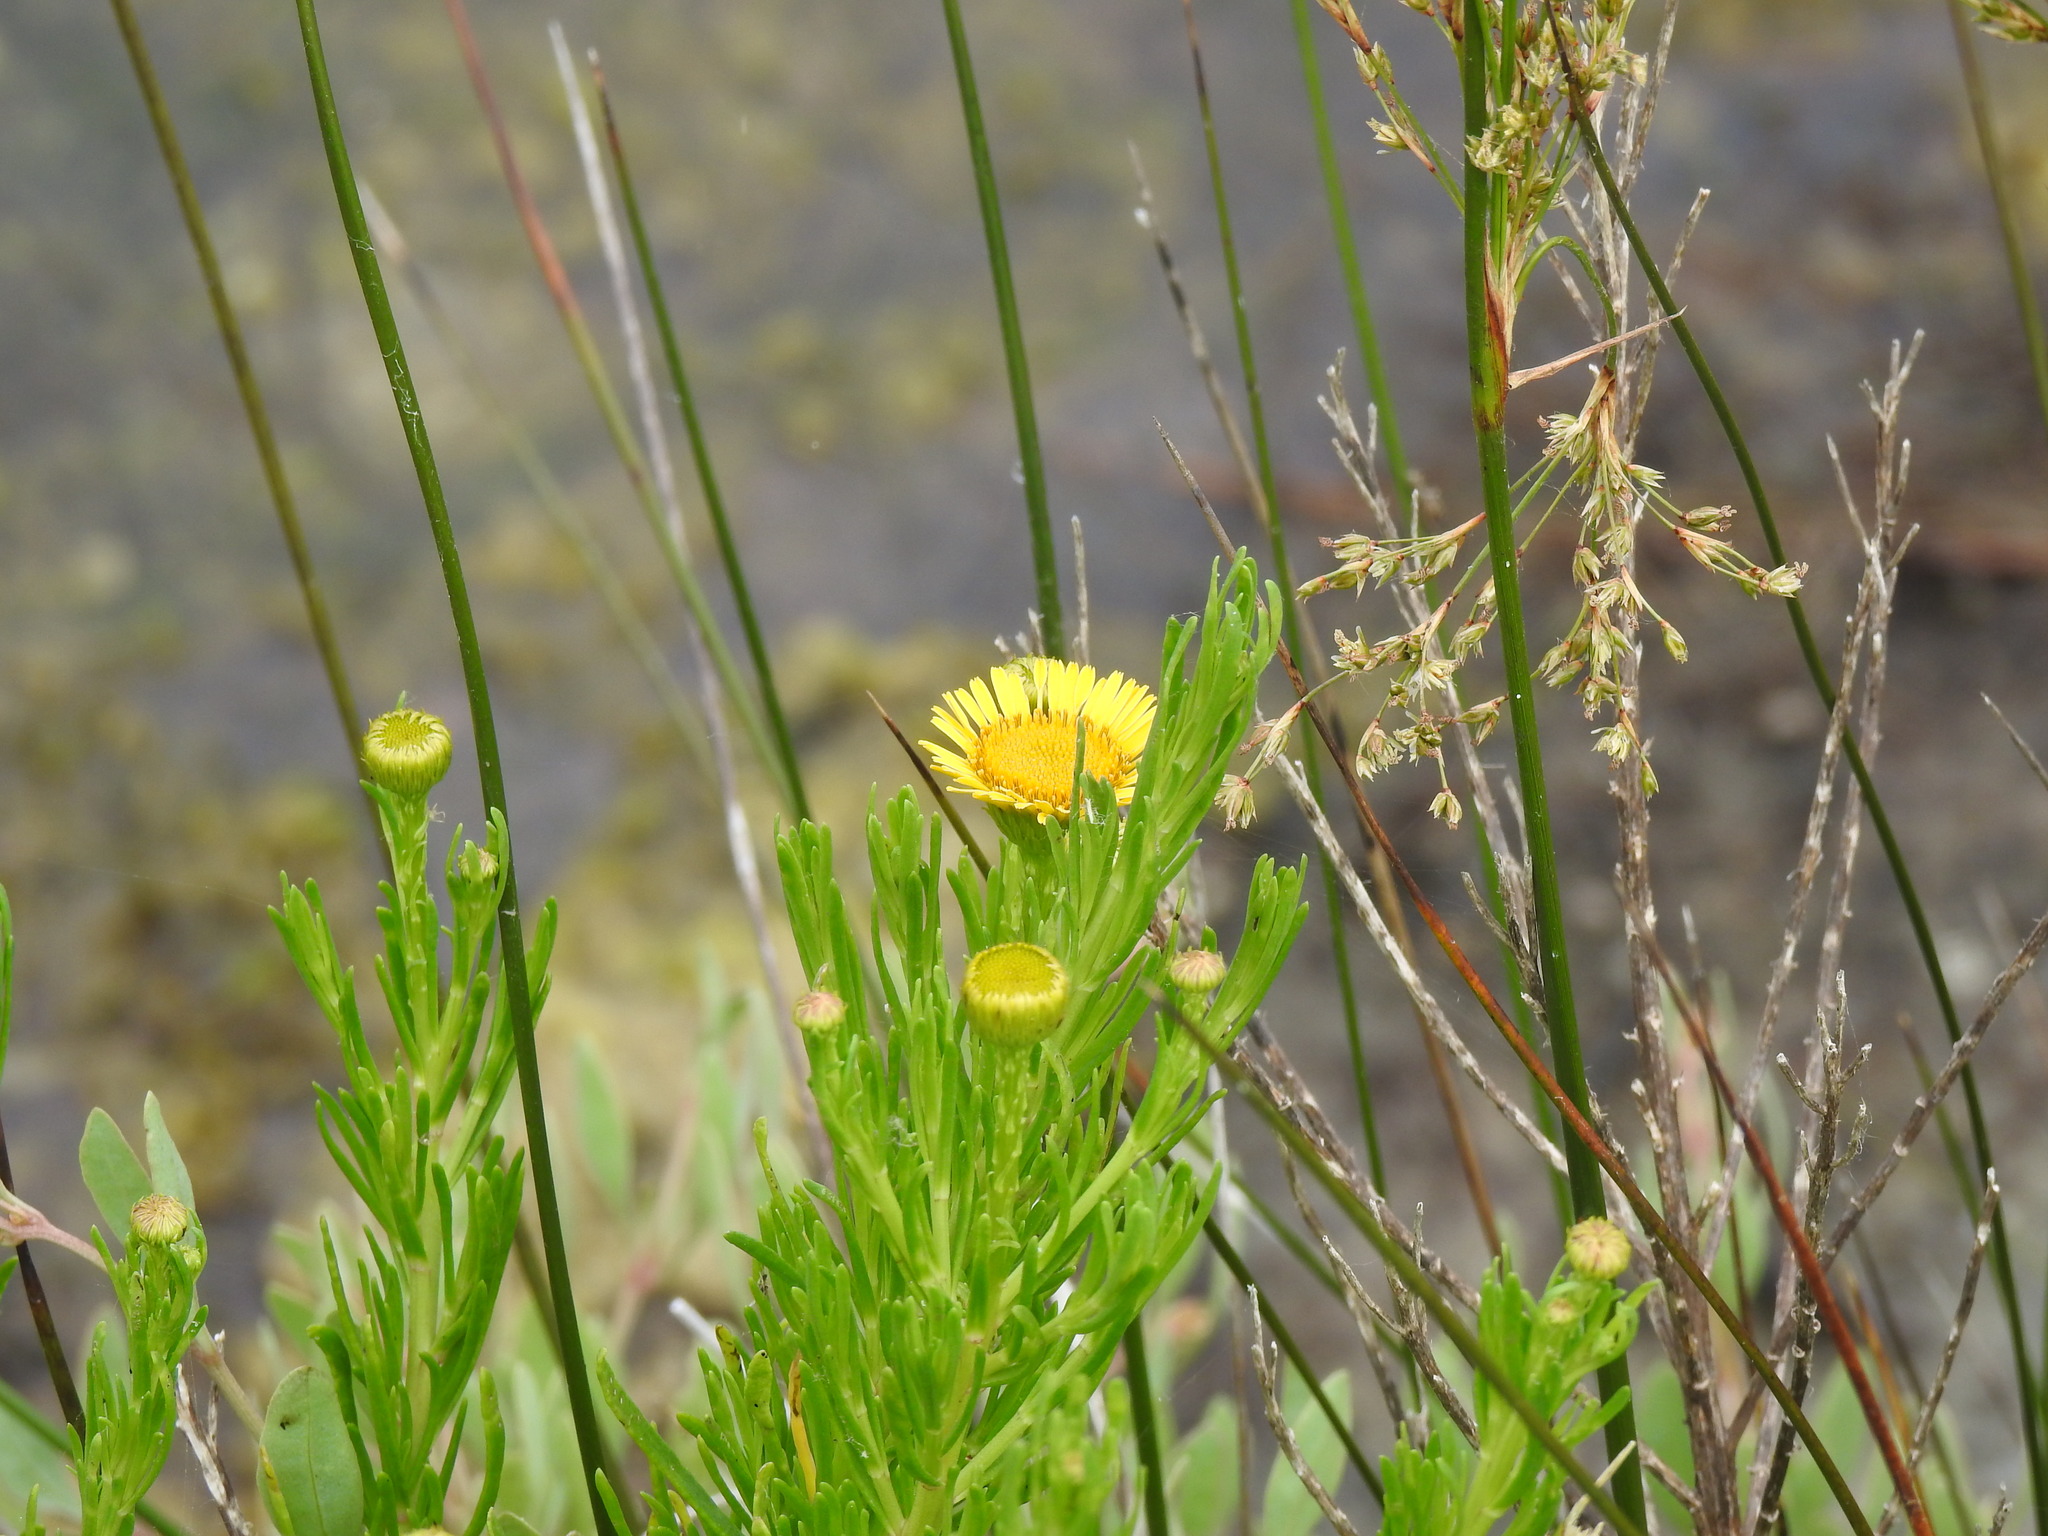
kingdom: Plantae
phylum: Tracheophyta
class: Magnoliopsida
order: Asterales
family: Asteraceae
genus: Limbarda
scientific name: Limbarda crithmoides
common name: Golden samphire
